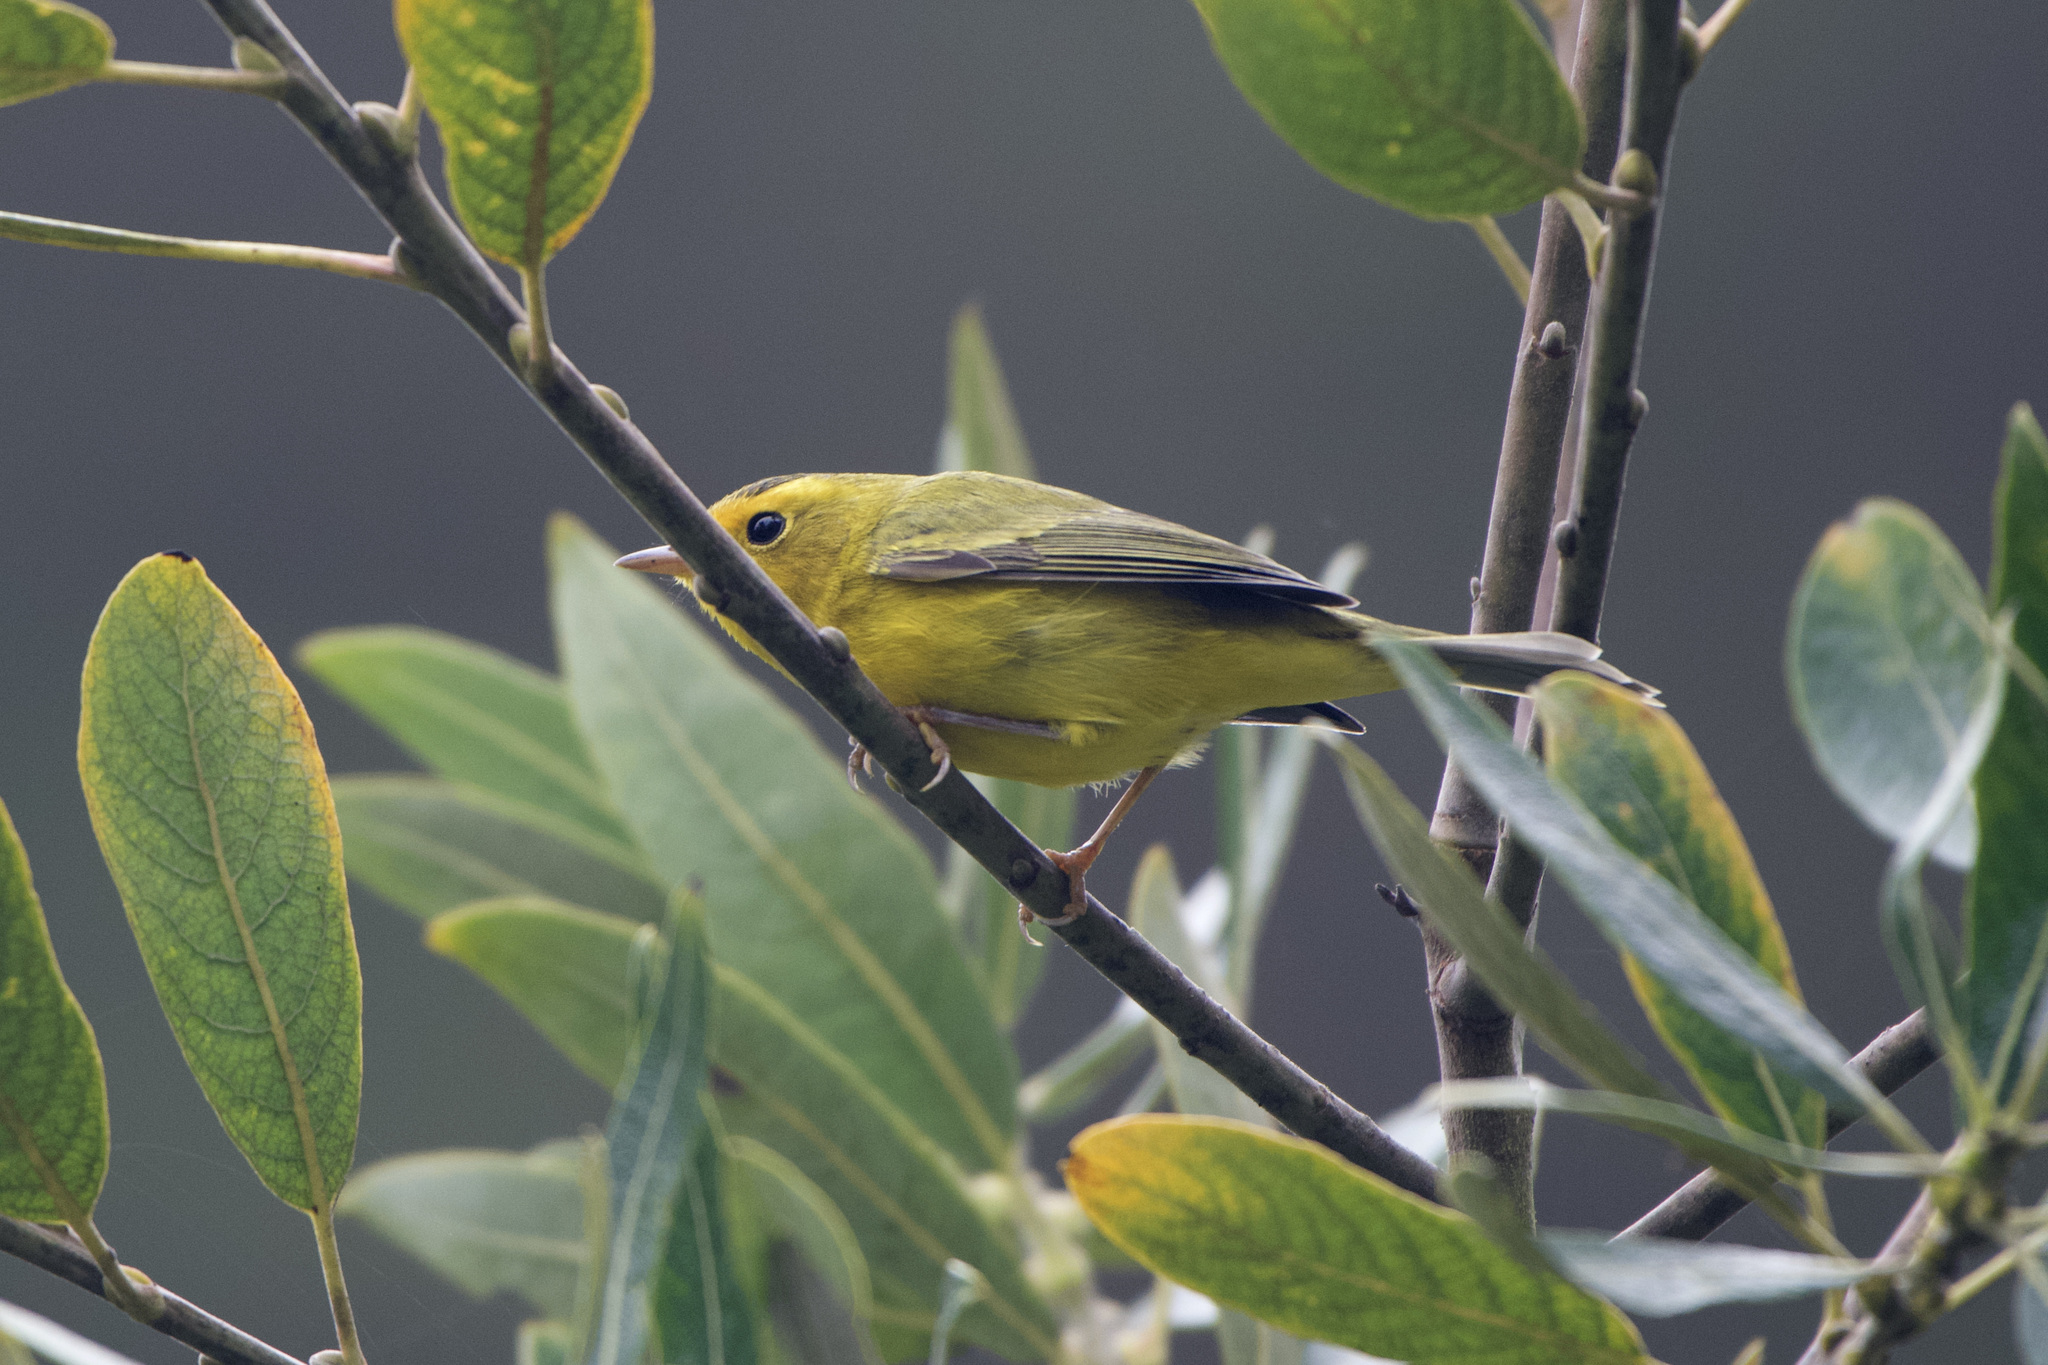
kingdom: Animalia
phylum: Chordata
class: Aves
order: Passeriformes
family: Parulidae
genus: Cardellina
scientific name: Cardellina pusilla
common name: Wilson's warbler
